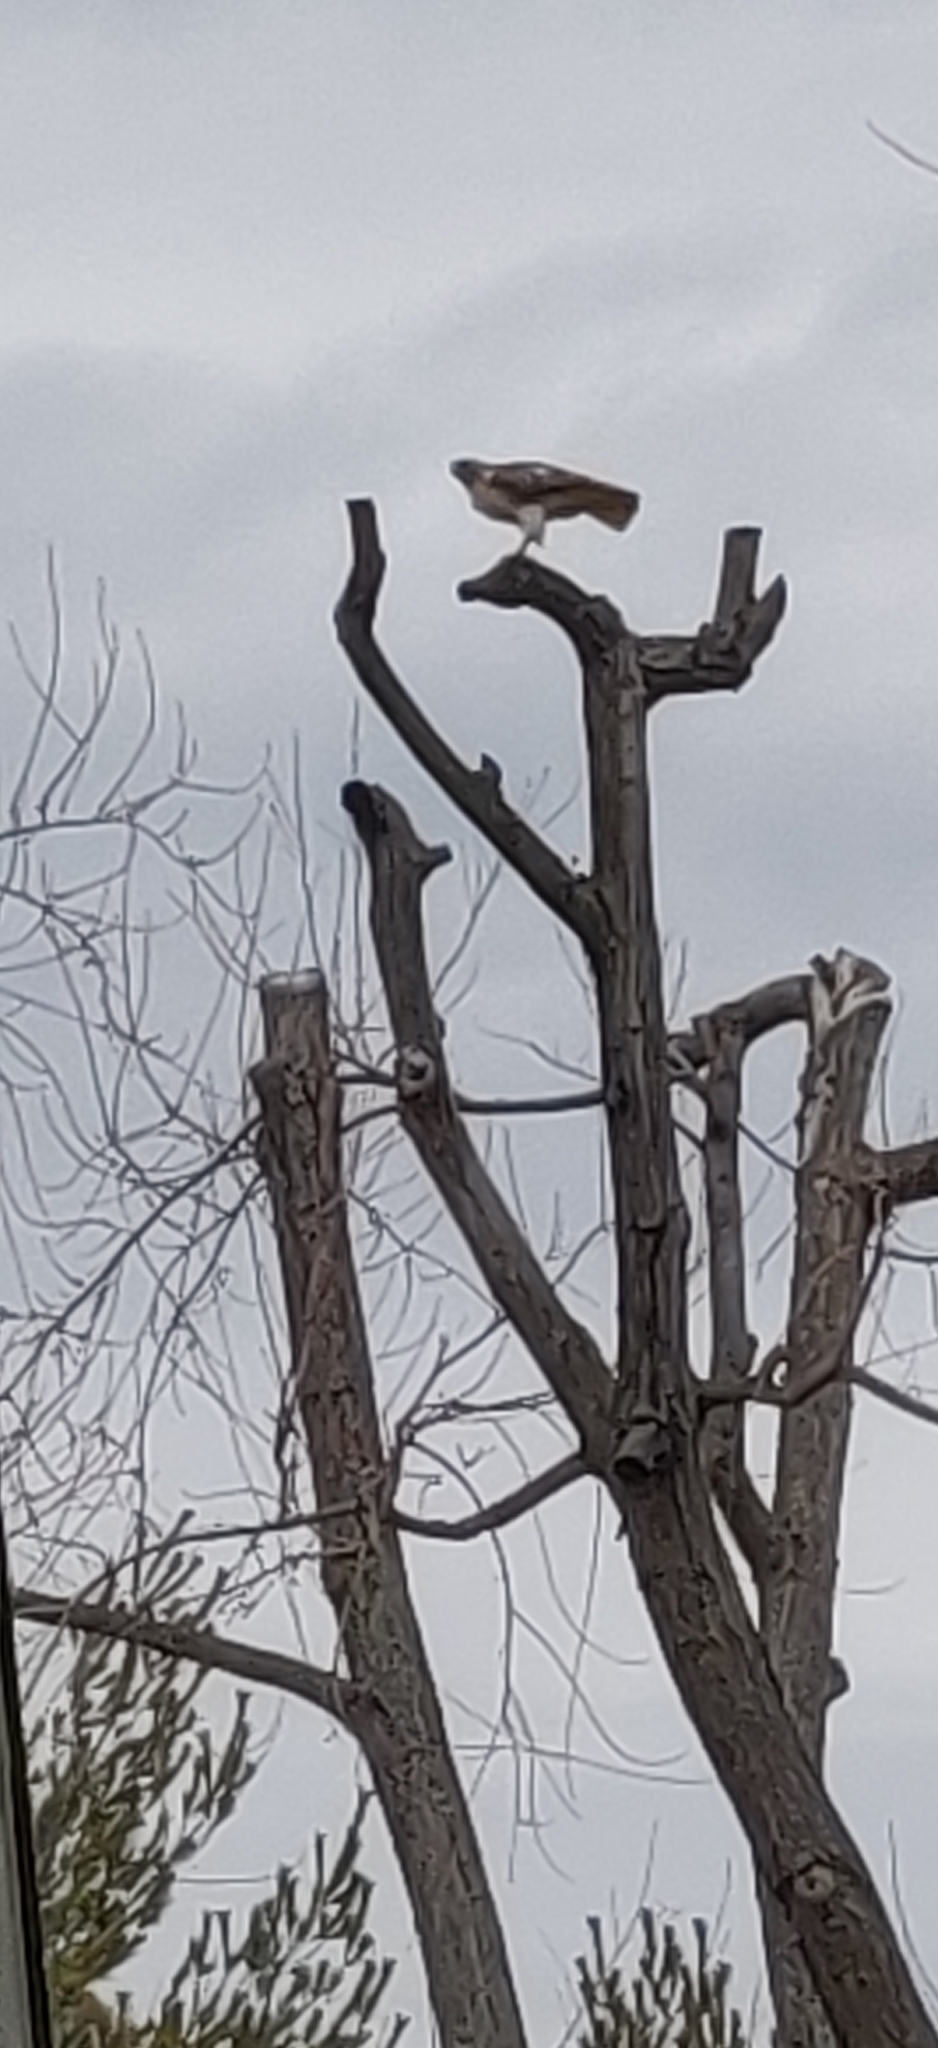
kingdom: Animalia
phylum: Chordata
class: Aves
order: Accipitriformes
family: Accipitridae
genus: Buteo
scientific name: Buteo jamaicensis
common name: Red-tailed hawk
